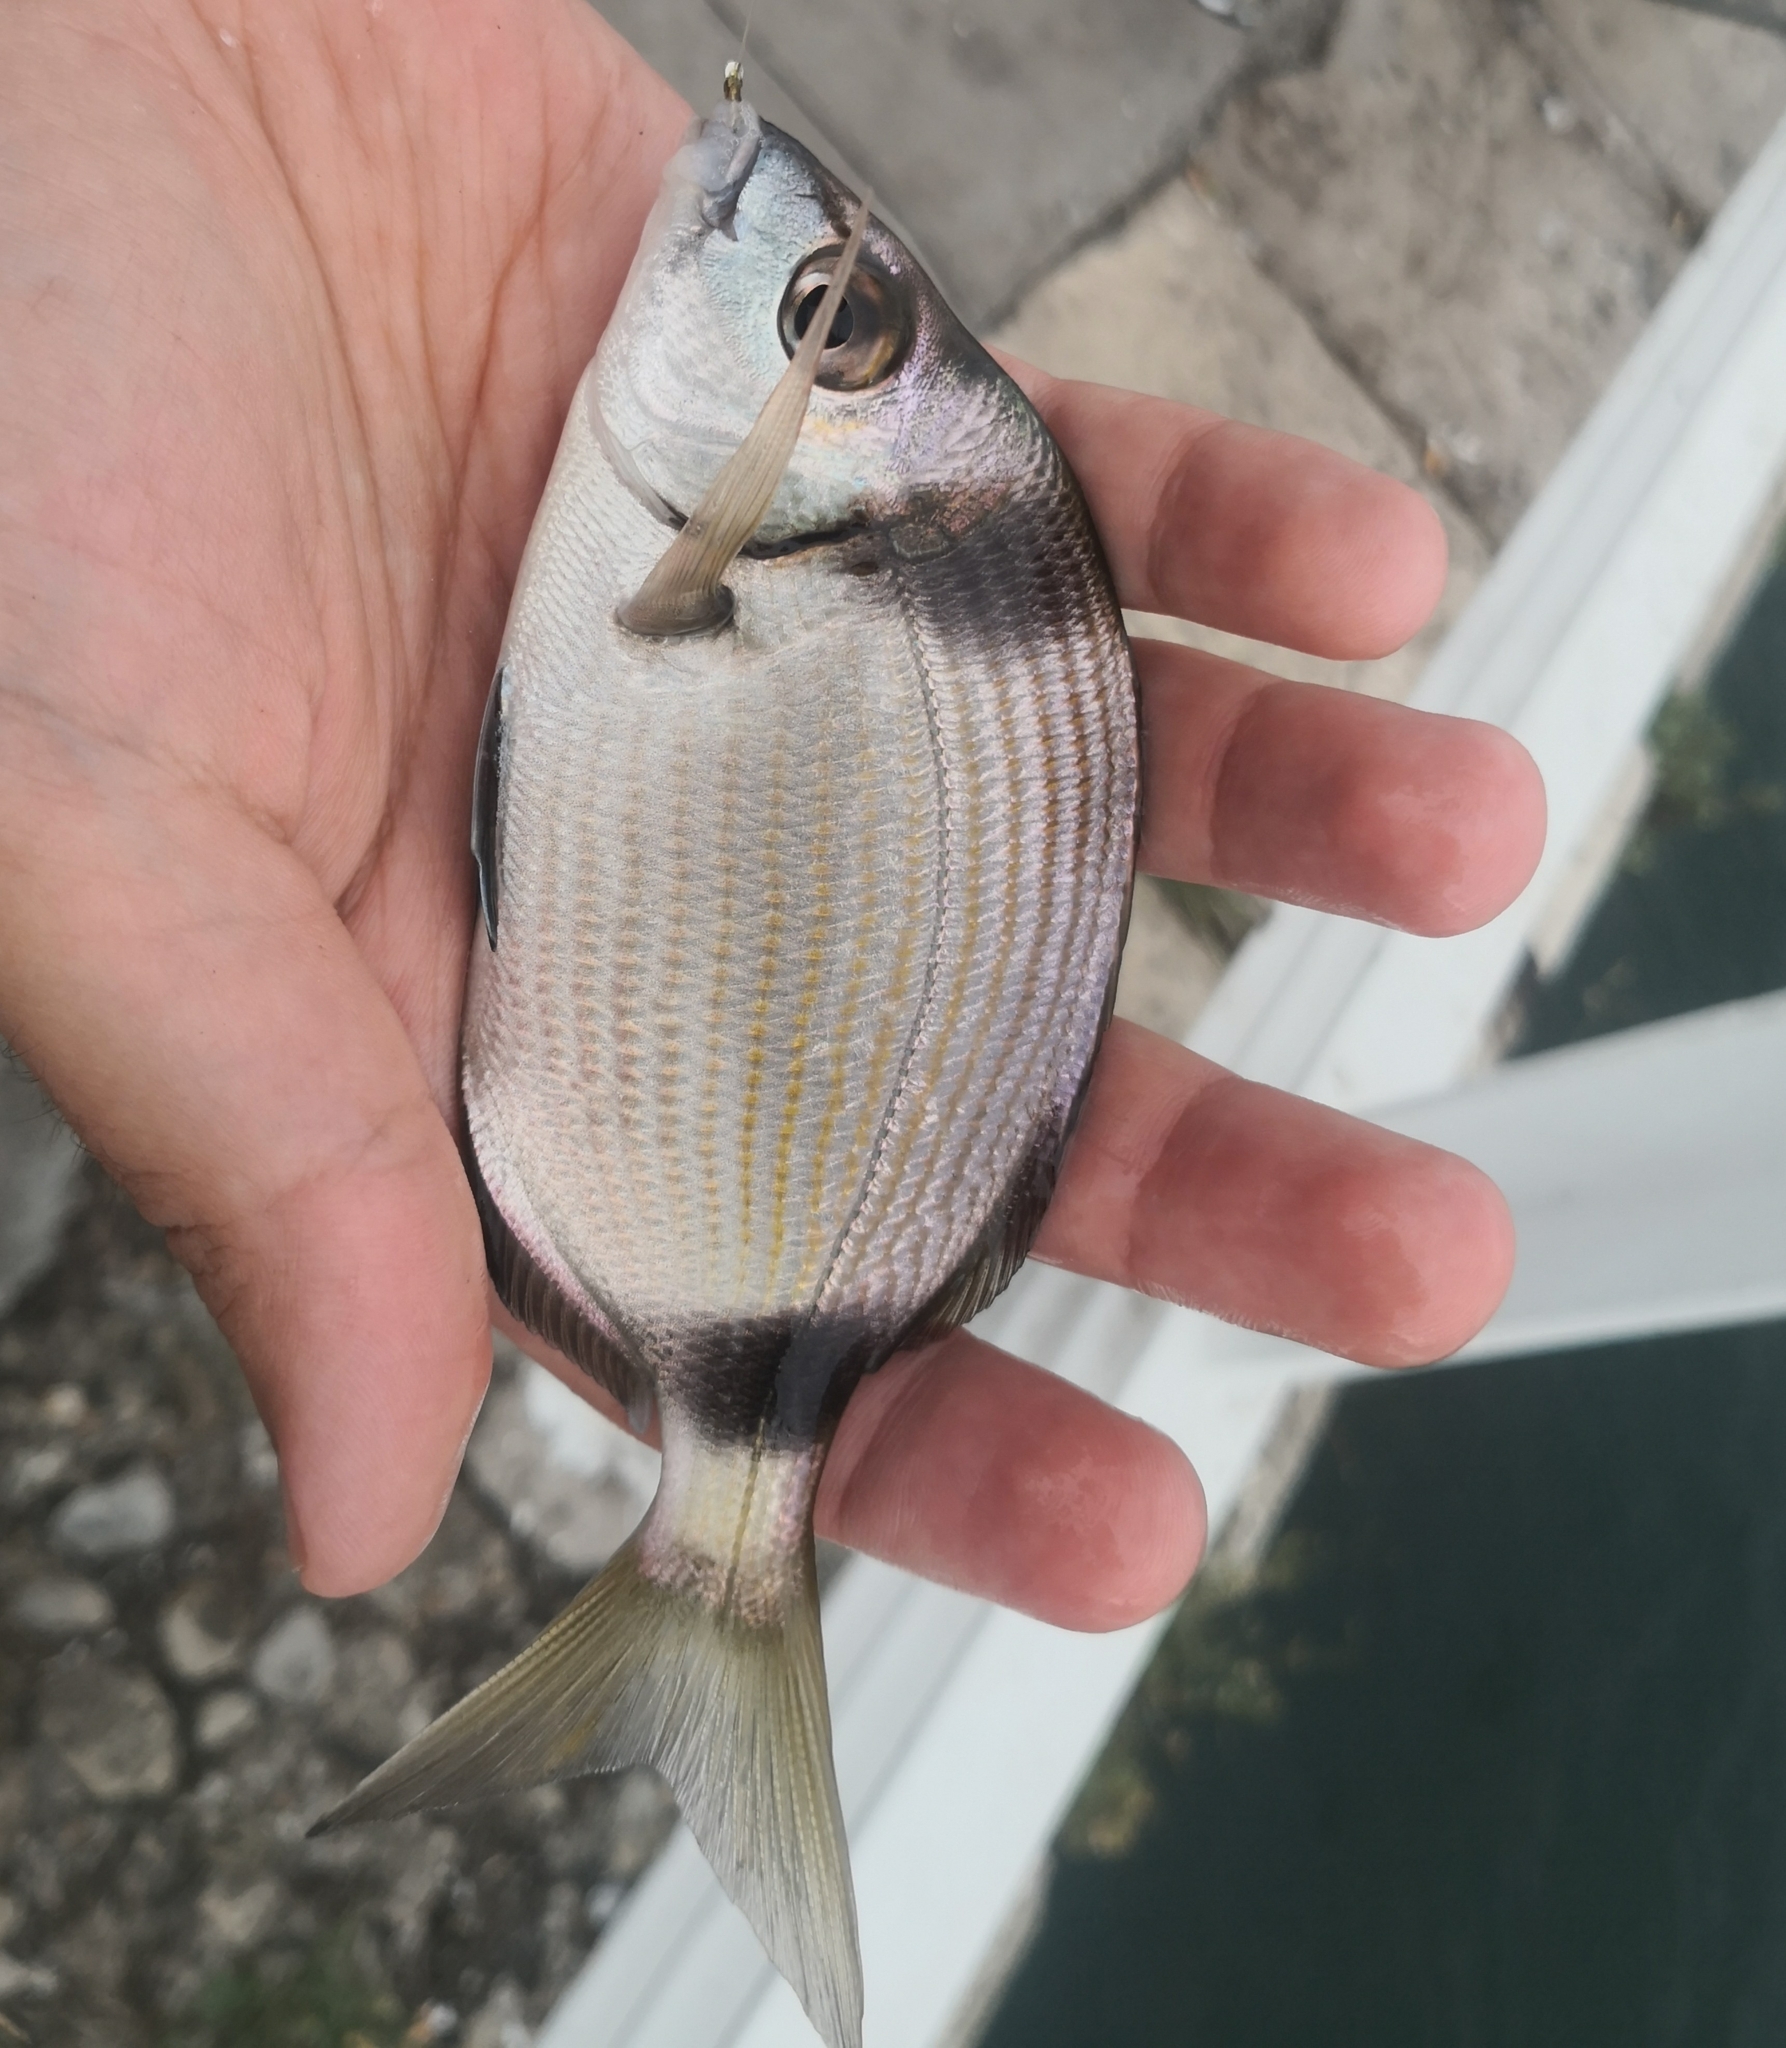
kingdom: Animalia
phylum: Chordata
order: Perciformes
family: Sparidae
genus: Diplodus
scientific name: Diplodus vulgaris
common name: Common two-banded seabream
